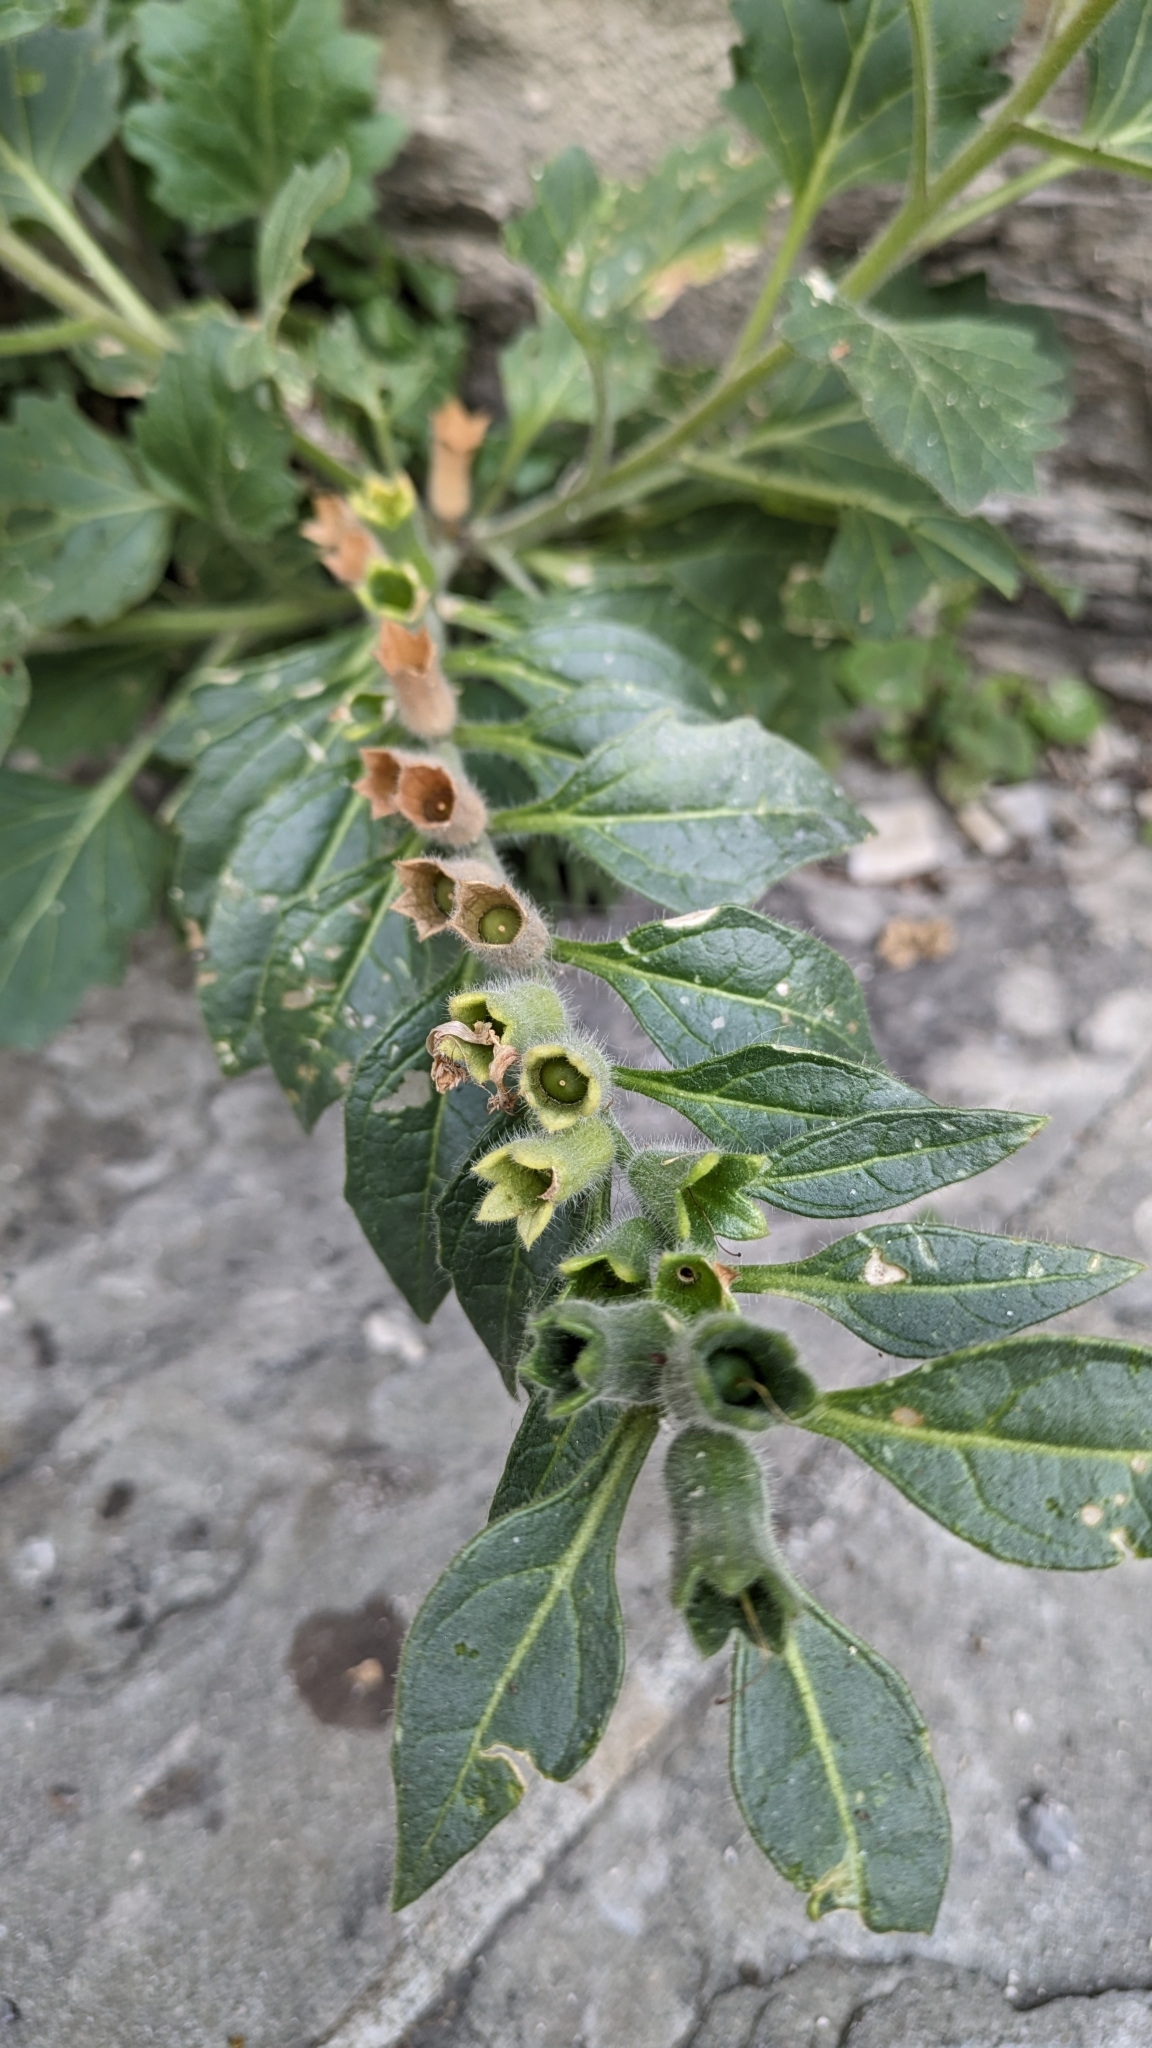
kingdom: Plantae
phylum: Tracheophyta
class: Magnoliopsida
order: Solanales
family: Solanaceae
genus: Hyoscyamus
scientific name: Hyoscyamus albus
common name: White henbane
